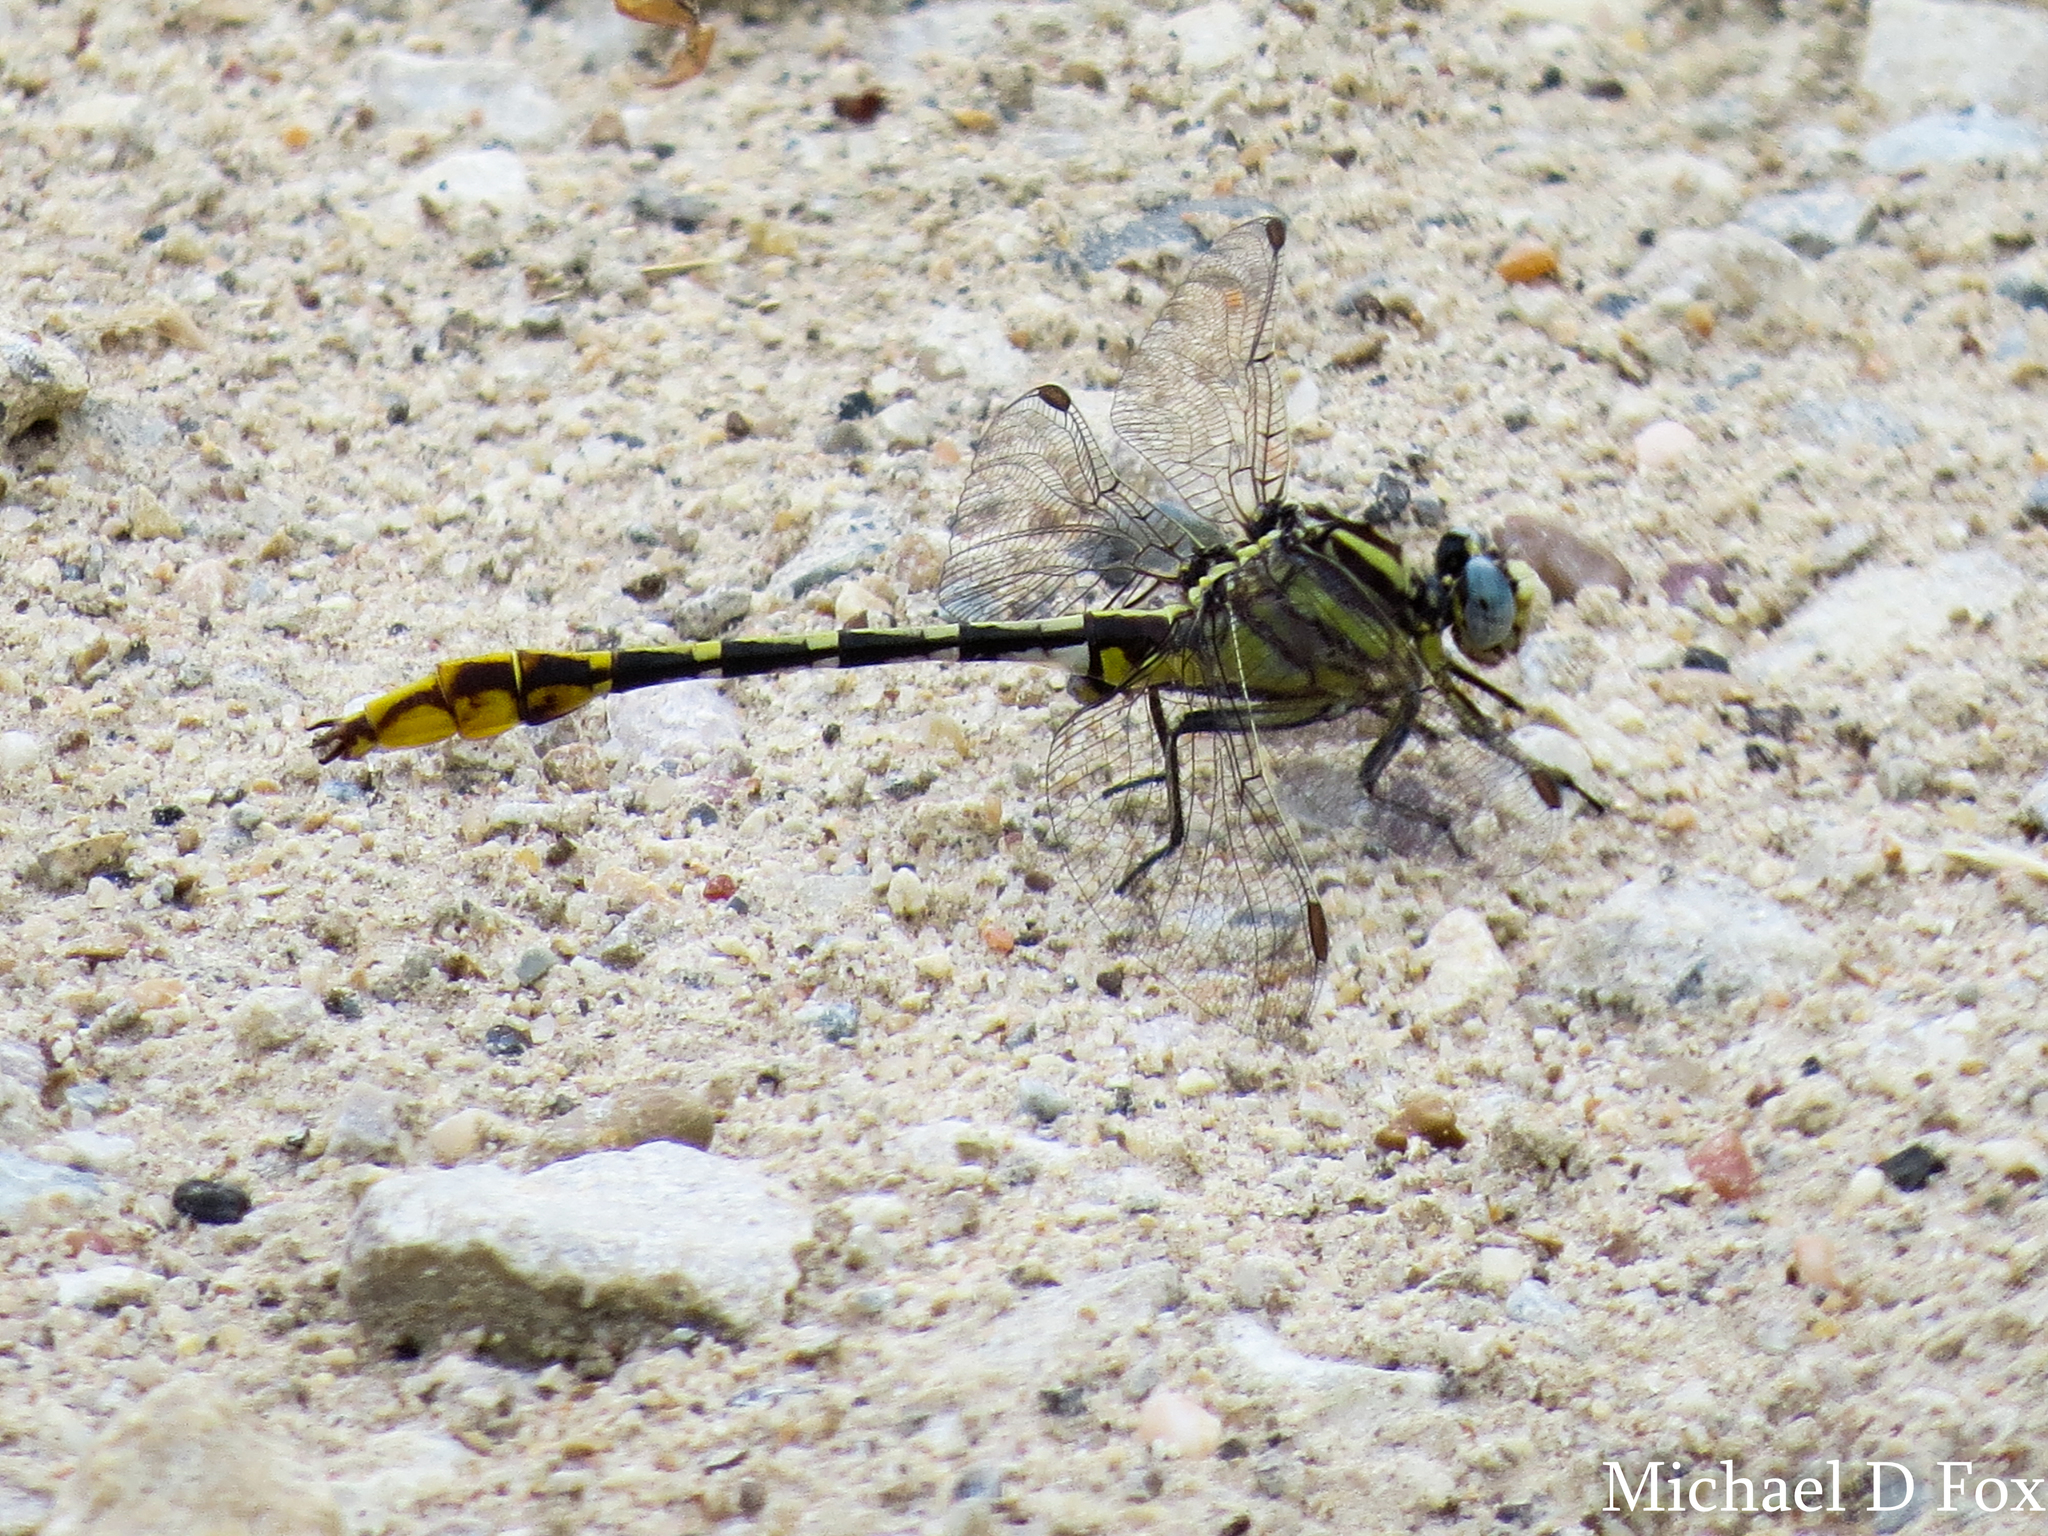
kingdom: Animalia
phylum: Arthropoda
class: Insecta
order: Odonata
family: Gomphidae
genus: Phanogomphus
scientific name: Phanogomphus militaris
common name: Sulphur-tipped clubtail
